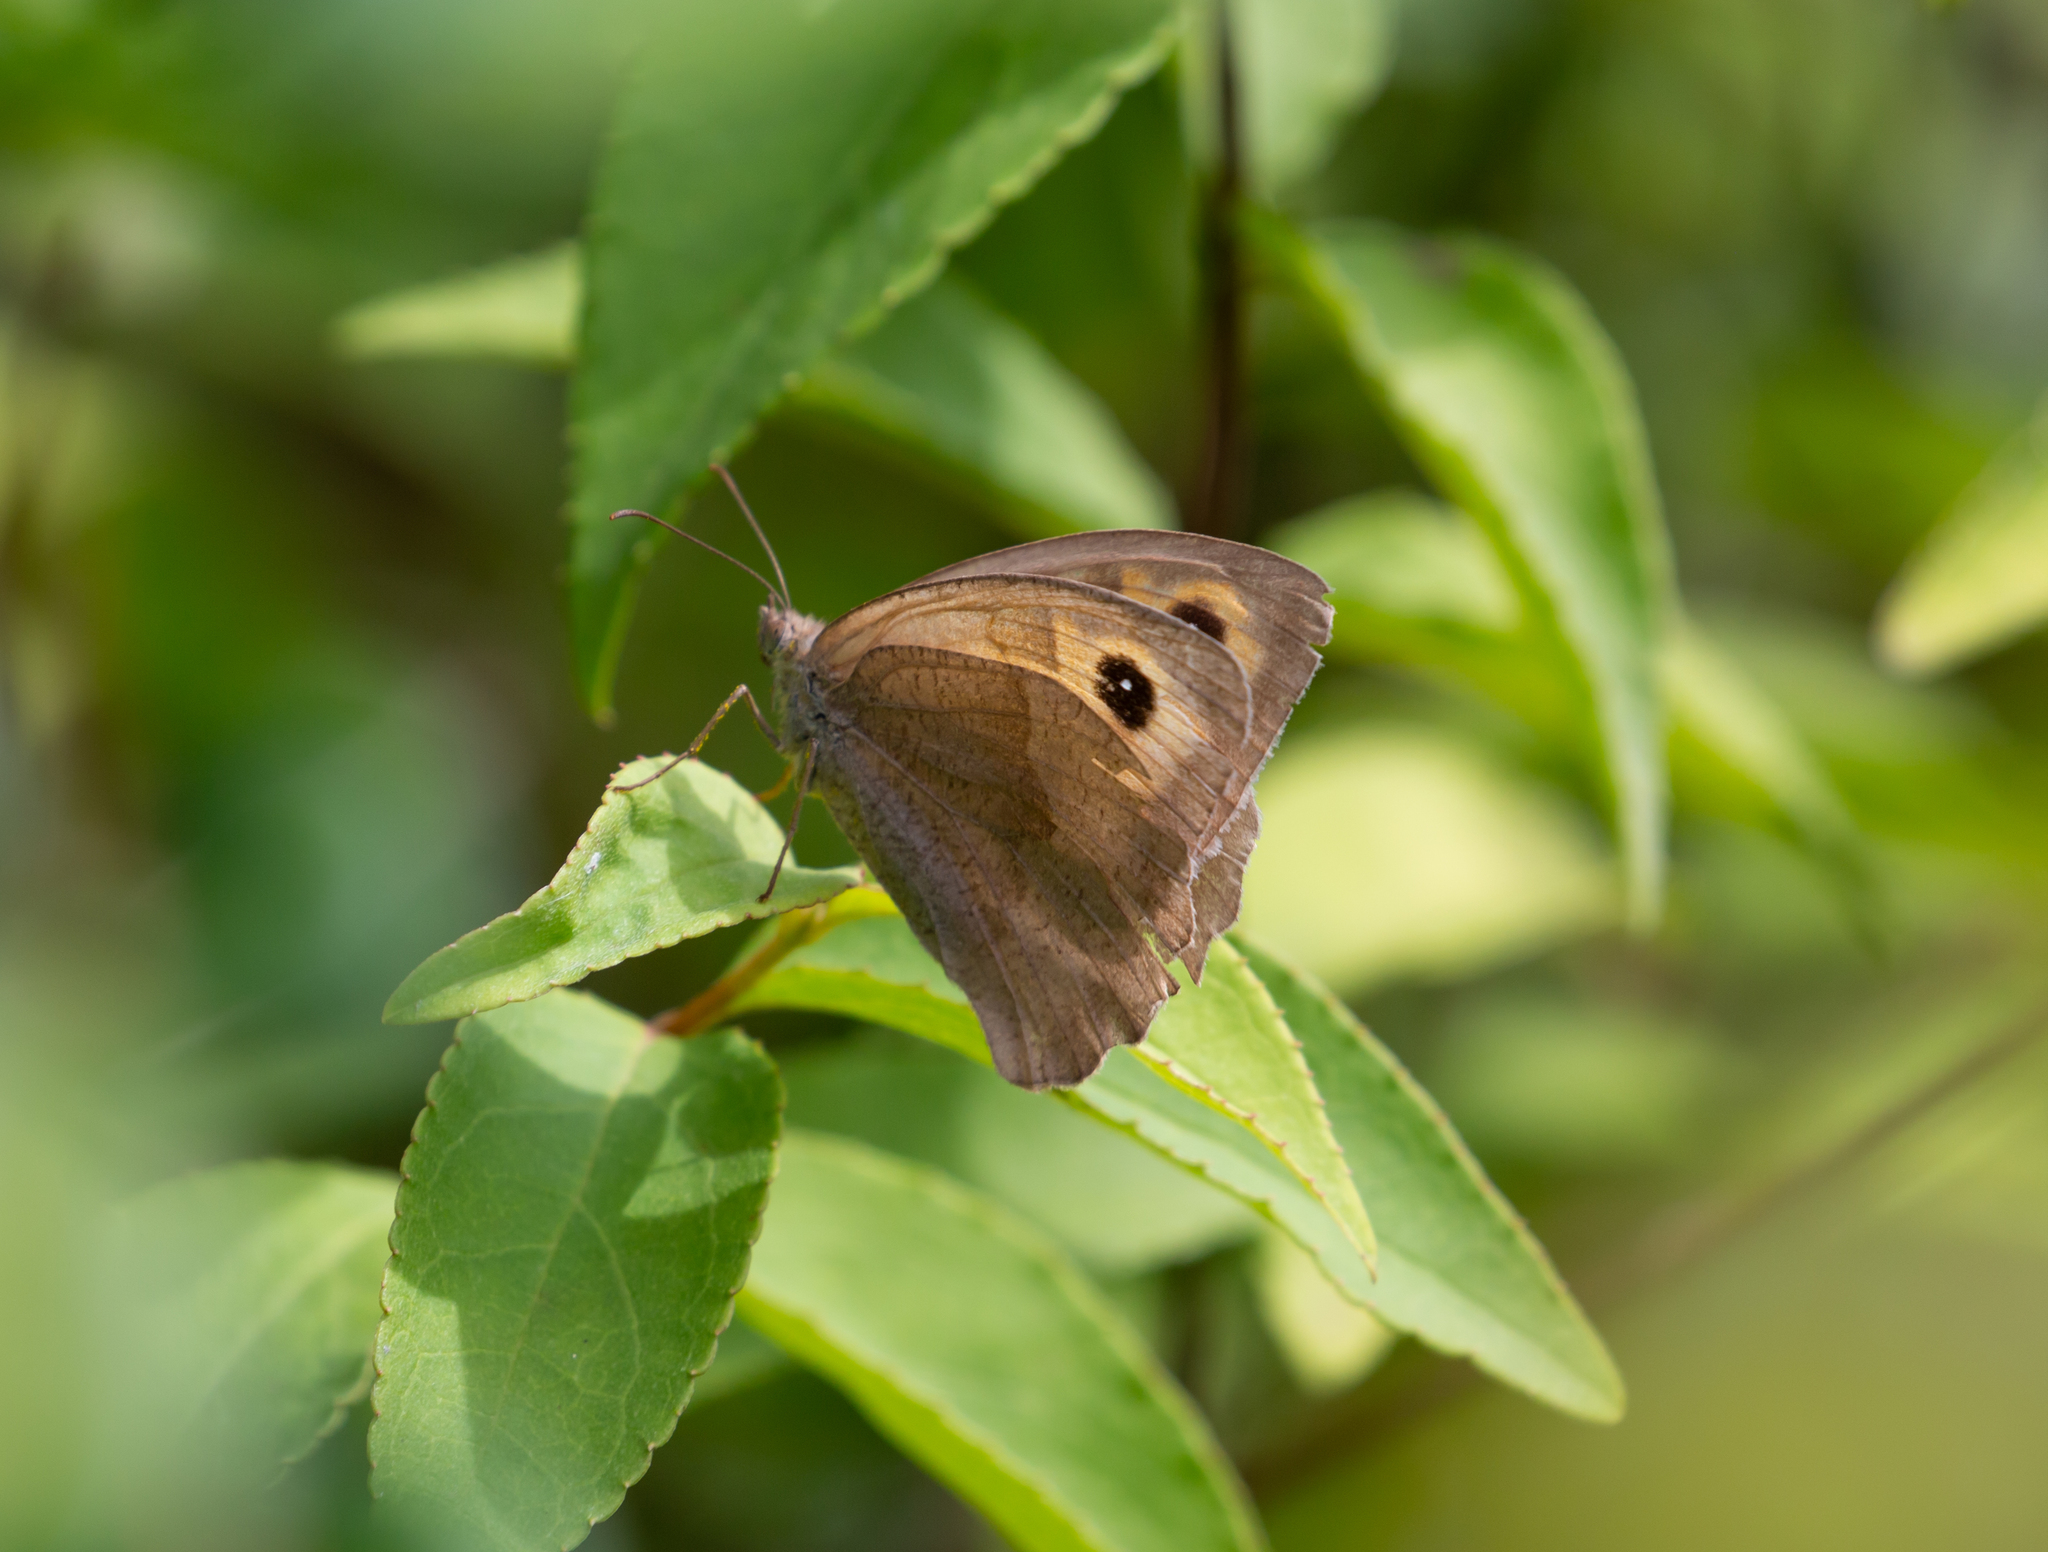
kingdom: Animalia
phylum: Arthropoda
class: Insecta
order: Lepidoptera
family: Nymphalidae
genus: Maniola
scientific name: Maniola jurtina
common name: Meadow brown
